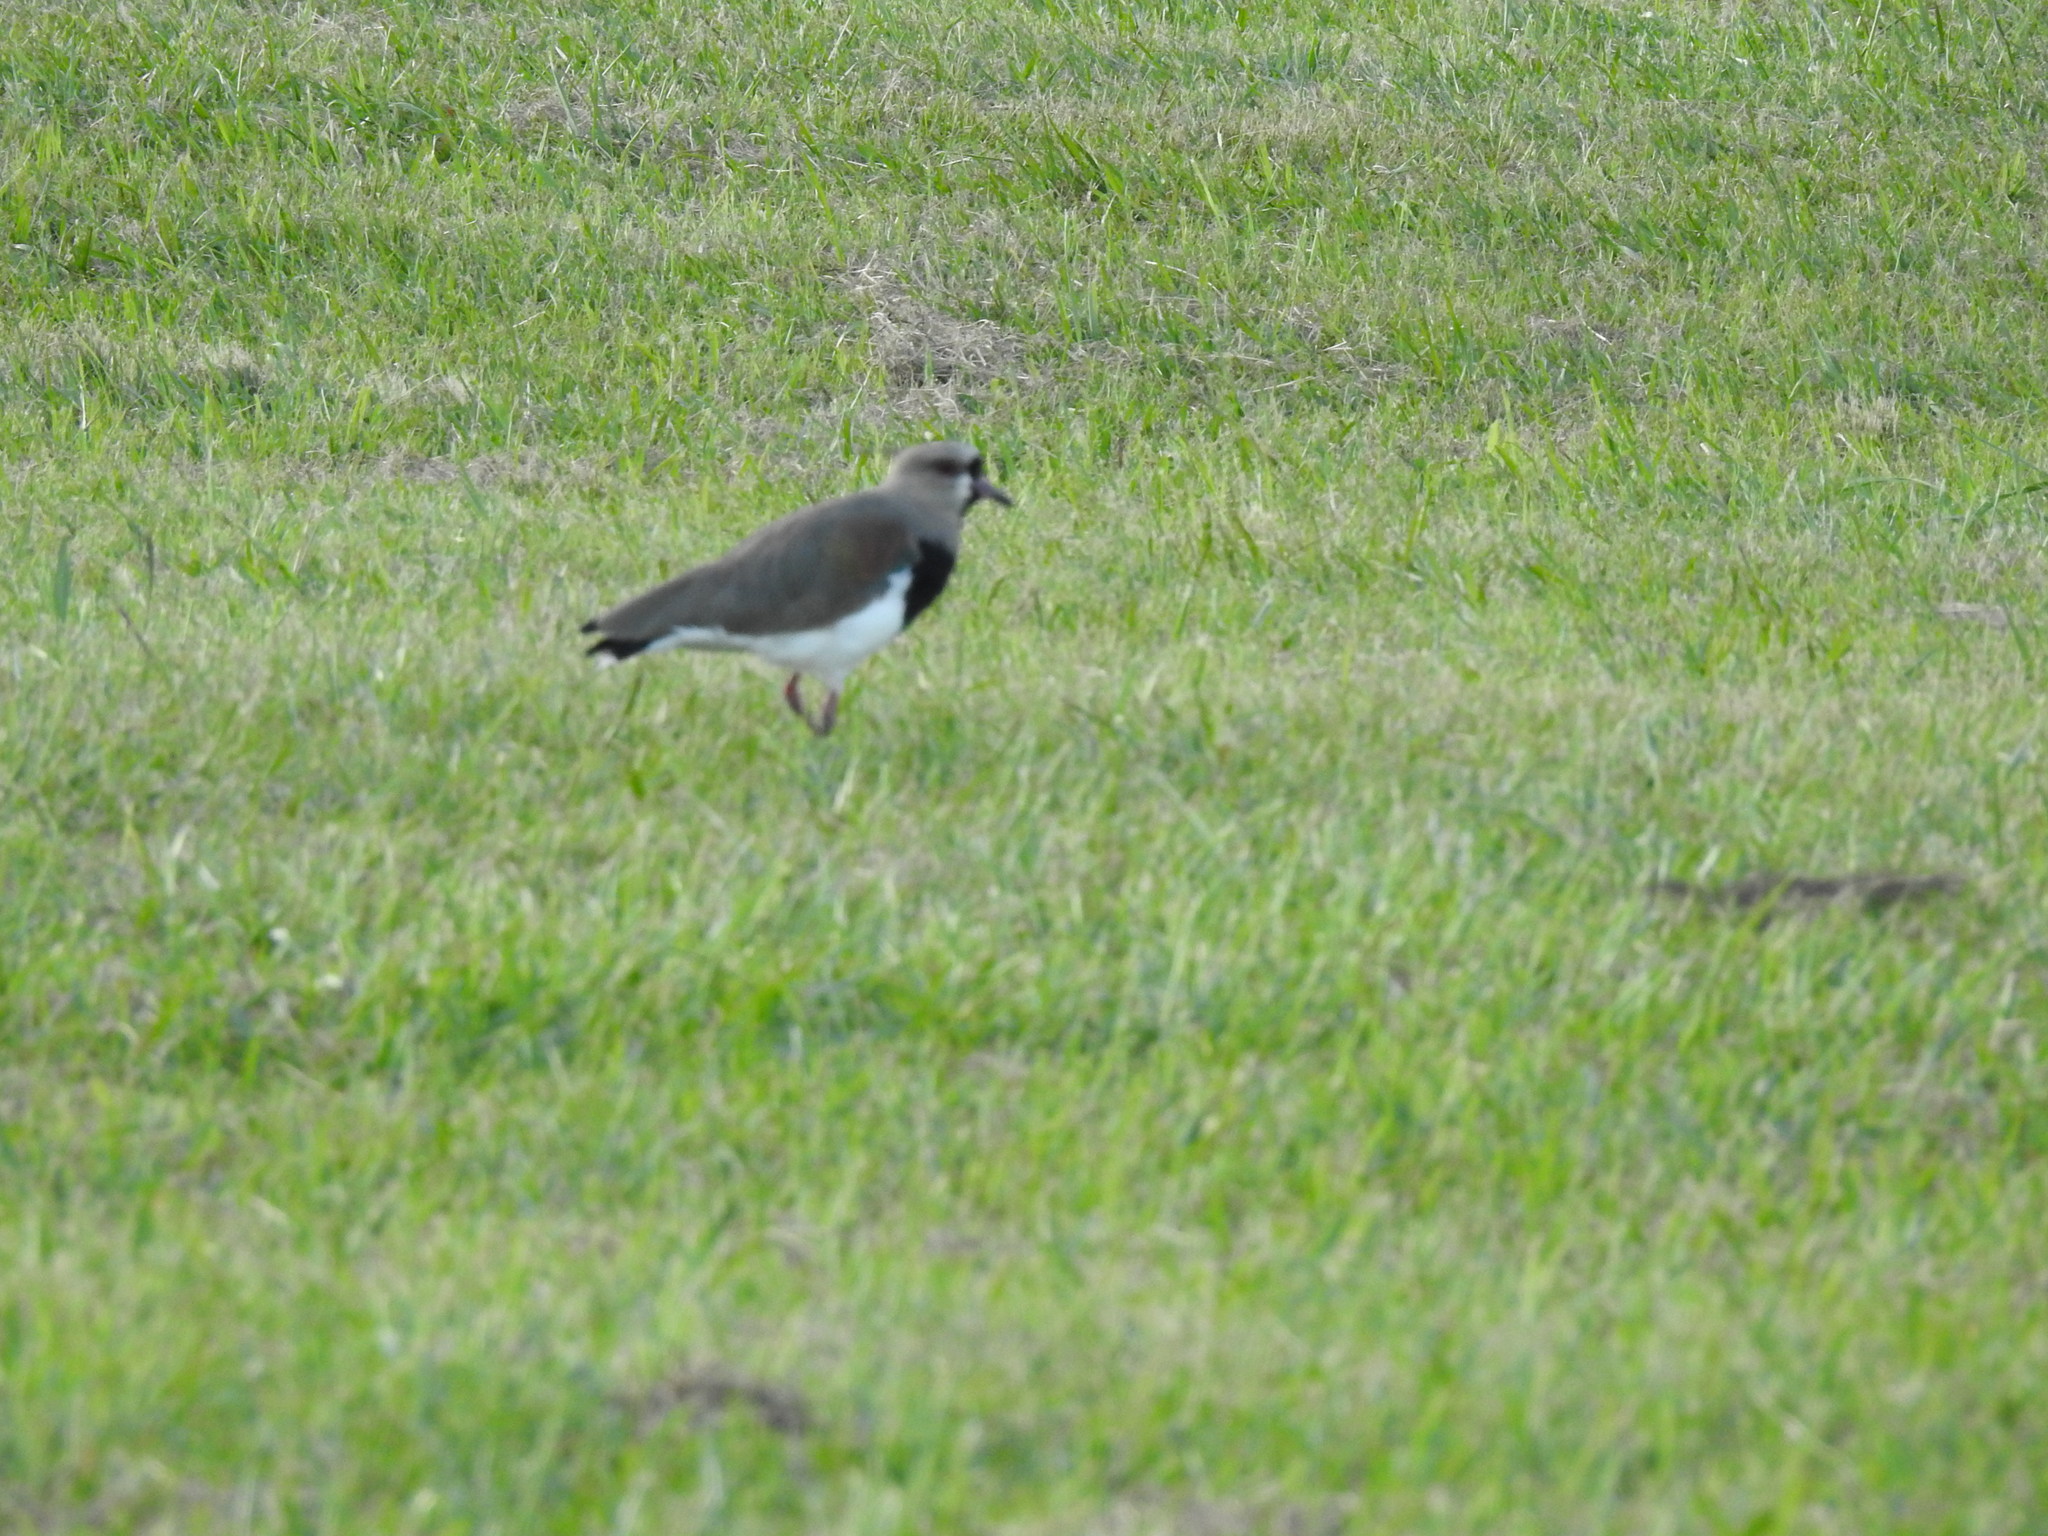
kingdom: Animalia
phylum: Chordata
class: Aves
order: Charadriiformes
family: Charadriidae
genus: Vanellus
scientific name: Vanellus chilensis
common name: Southern lapwing
